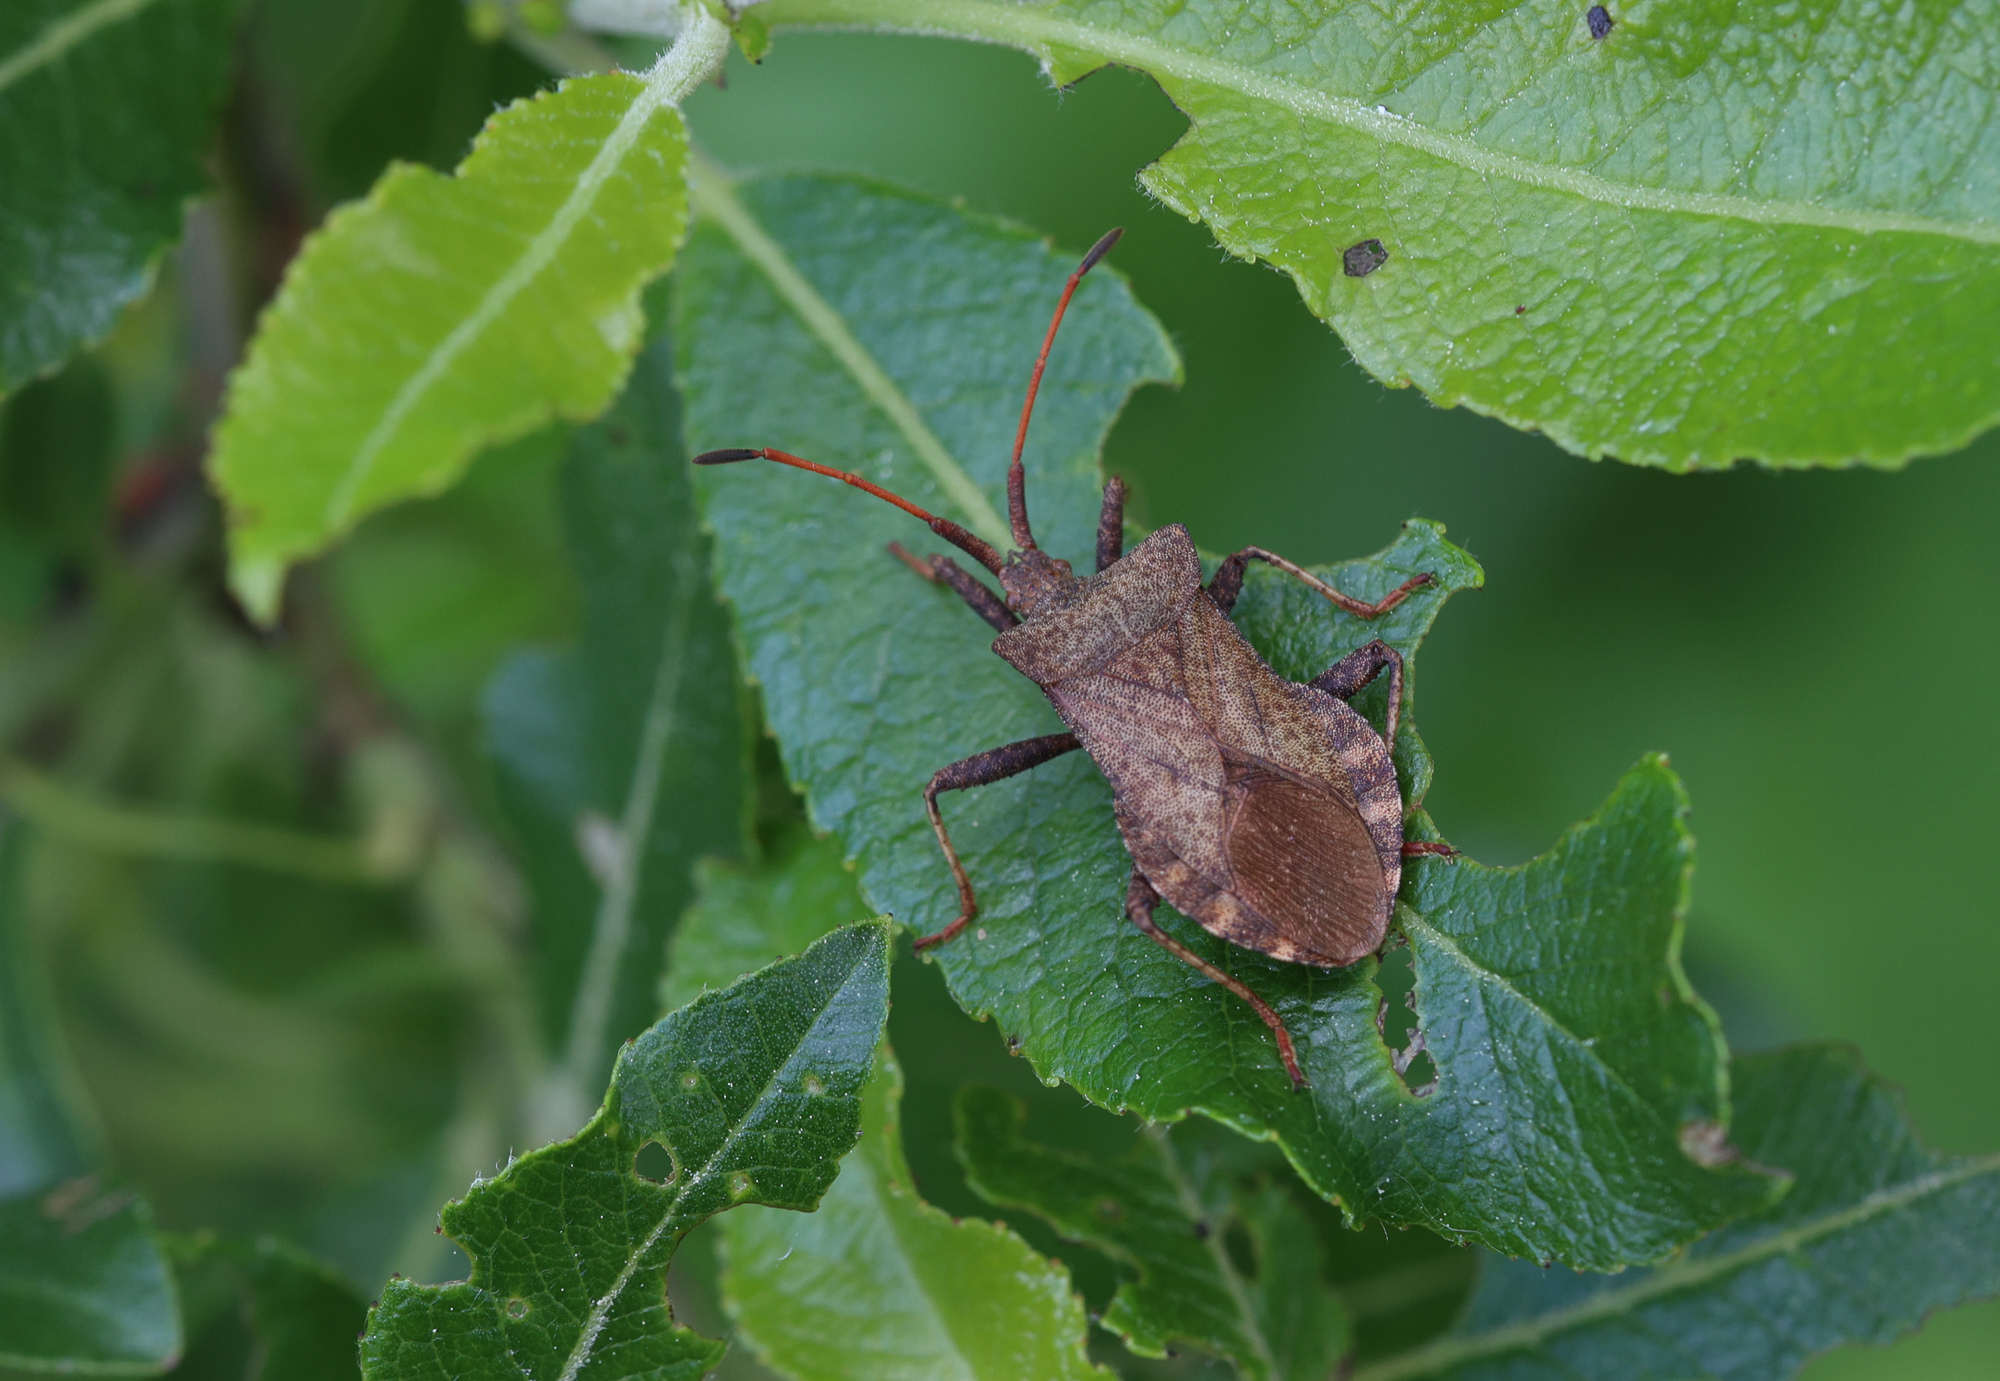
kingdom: Animalia
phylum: Arthropoda
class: Insecta
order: Hemiptera
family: Coreidae
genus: Coreus
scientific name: Coreus marginatus
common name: Dock bug
